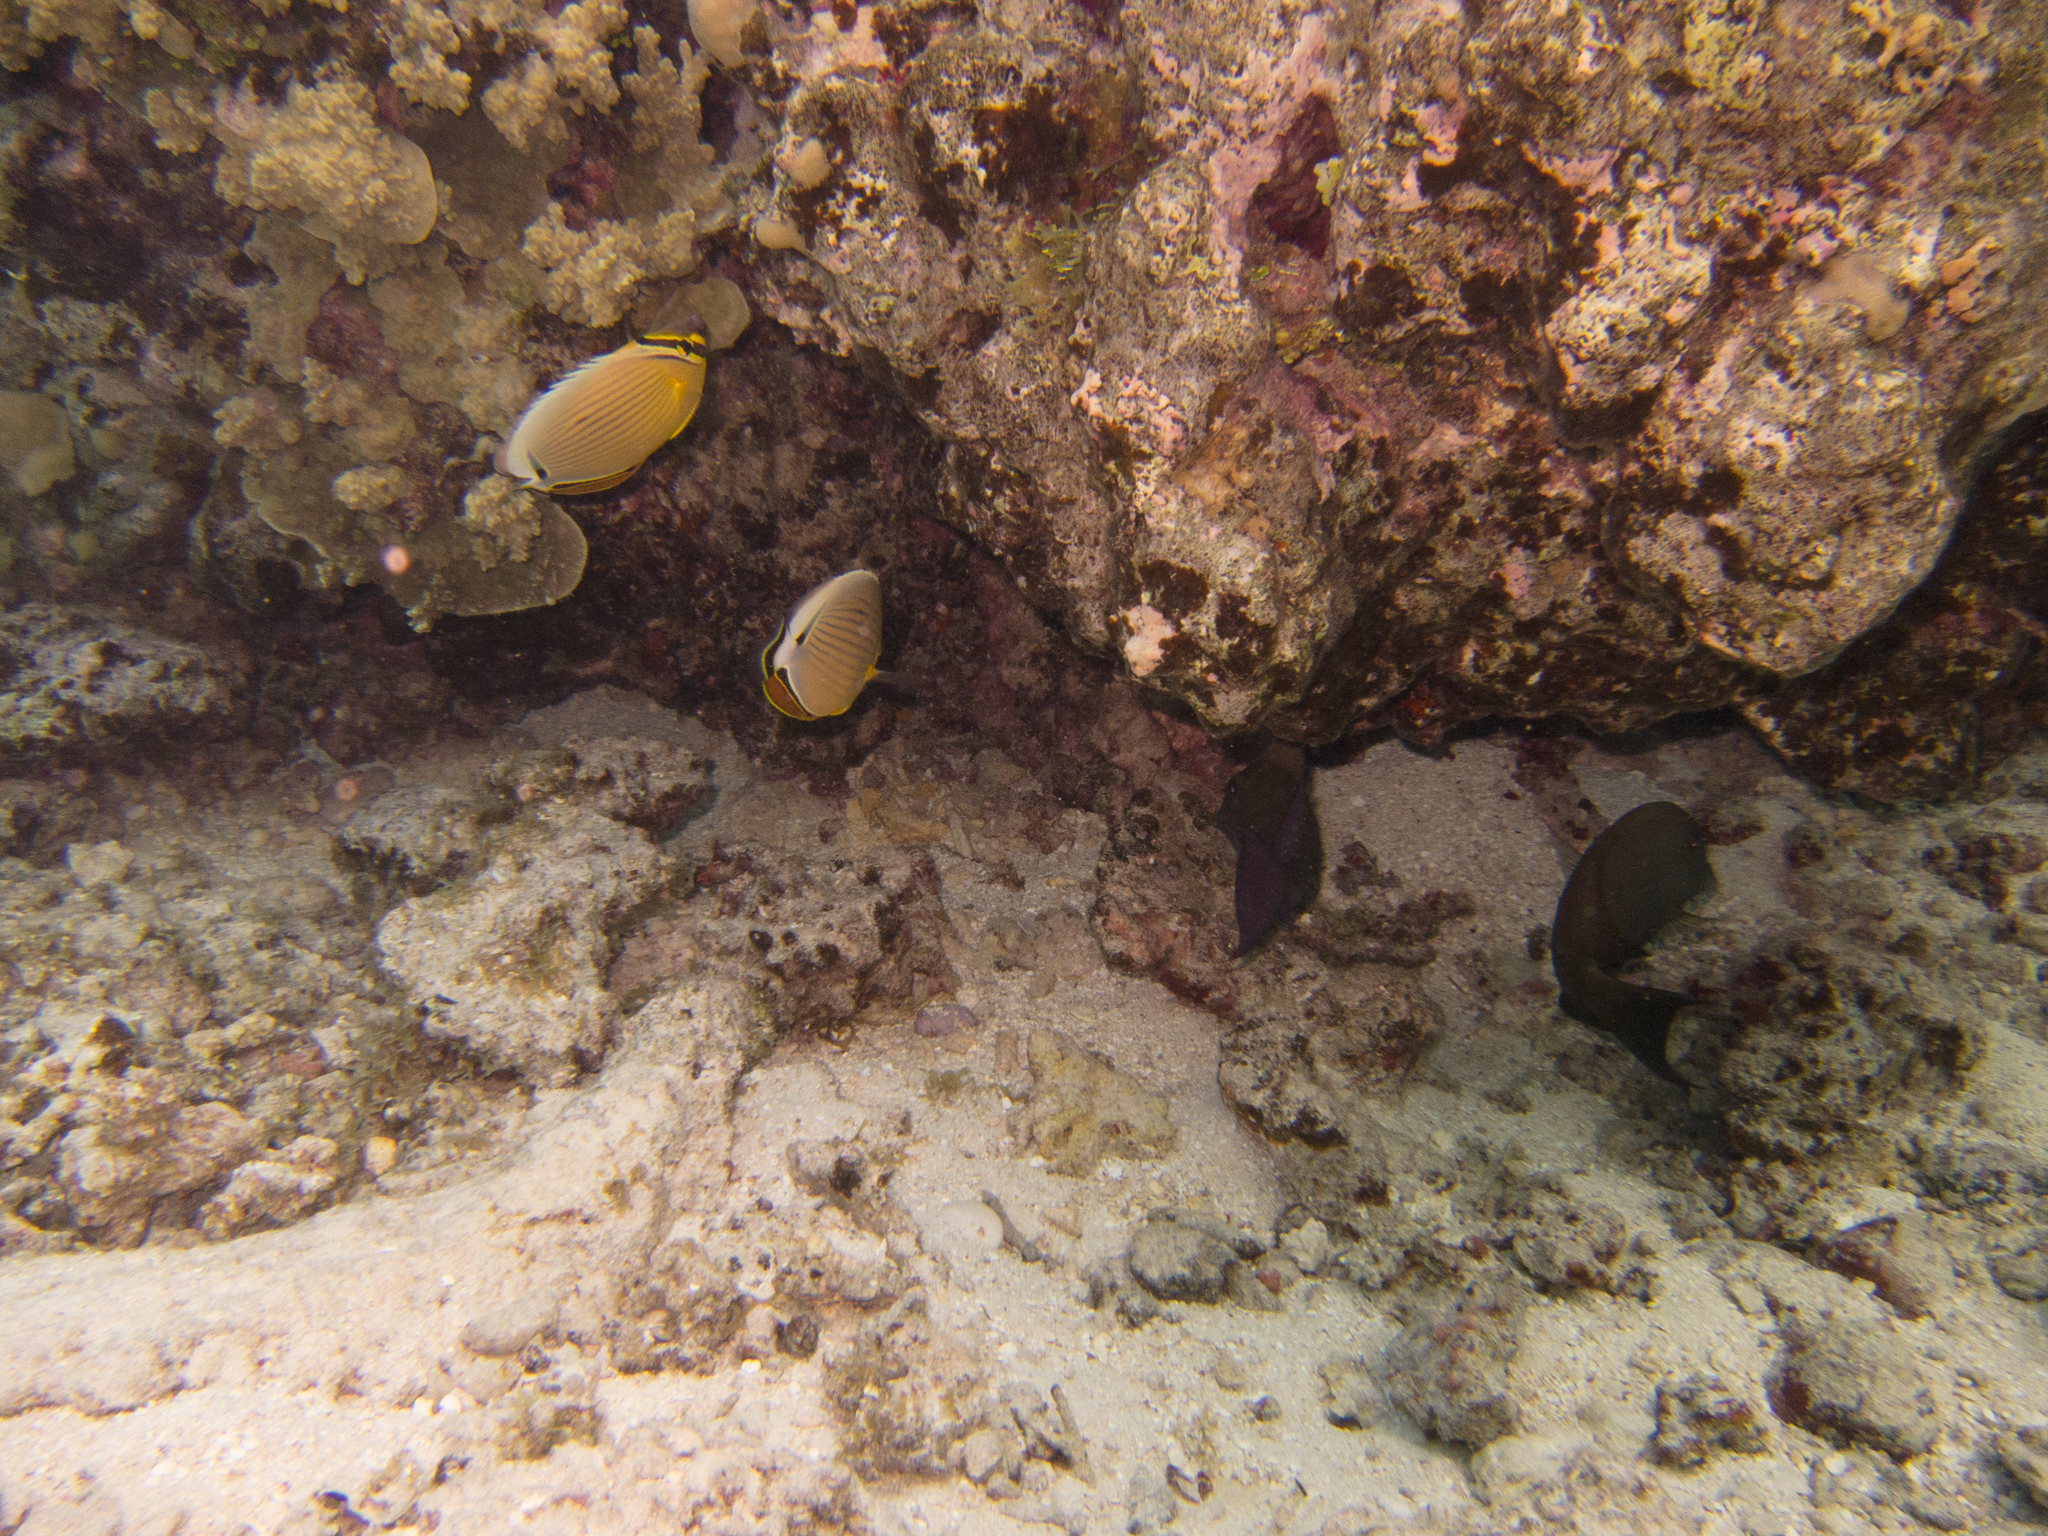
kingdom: Animalia
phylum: Chordata
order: Perciformes
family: Chaetodontidae
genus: Chaetodon
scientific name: Chaetodon lunulatus
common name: Redfin butterflyfish
